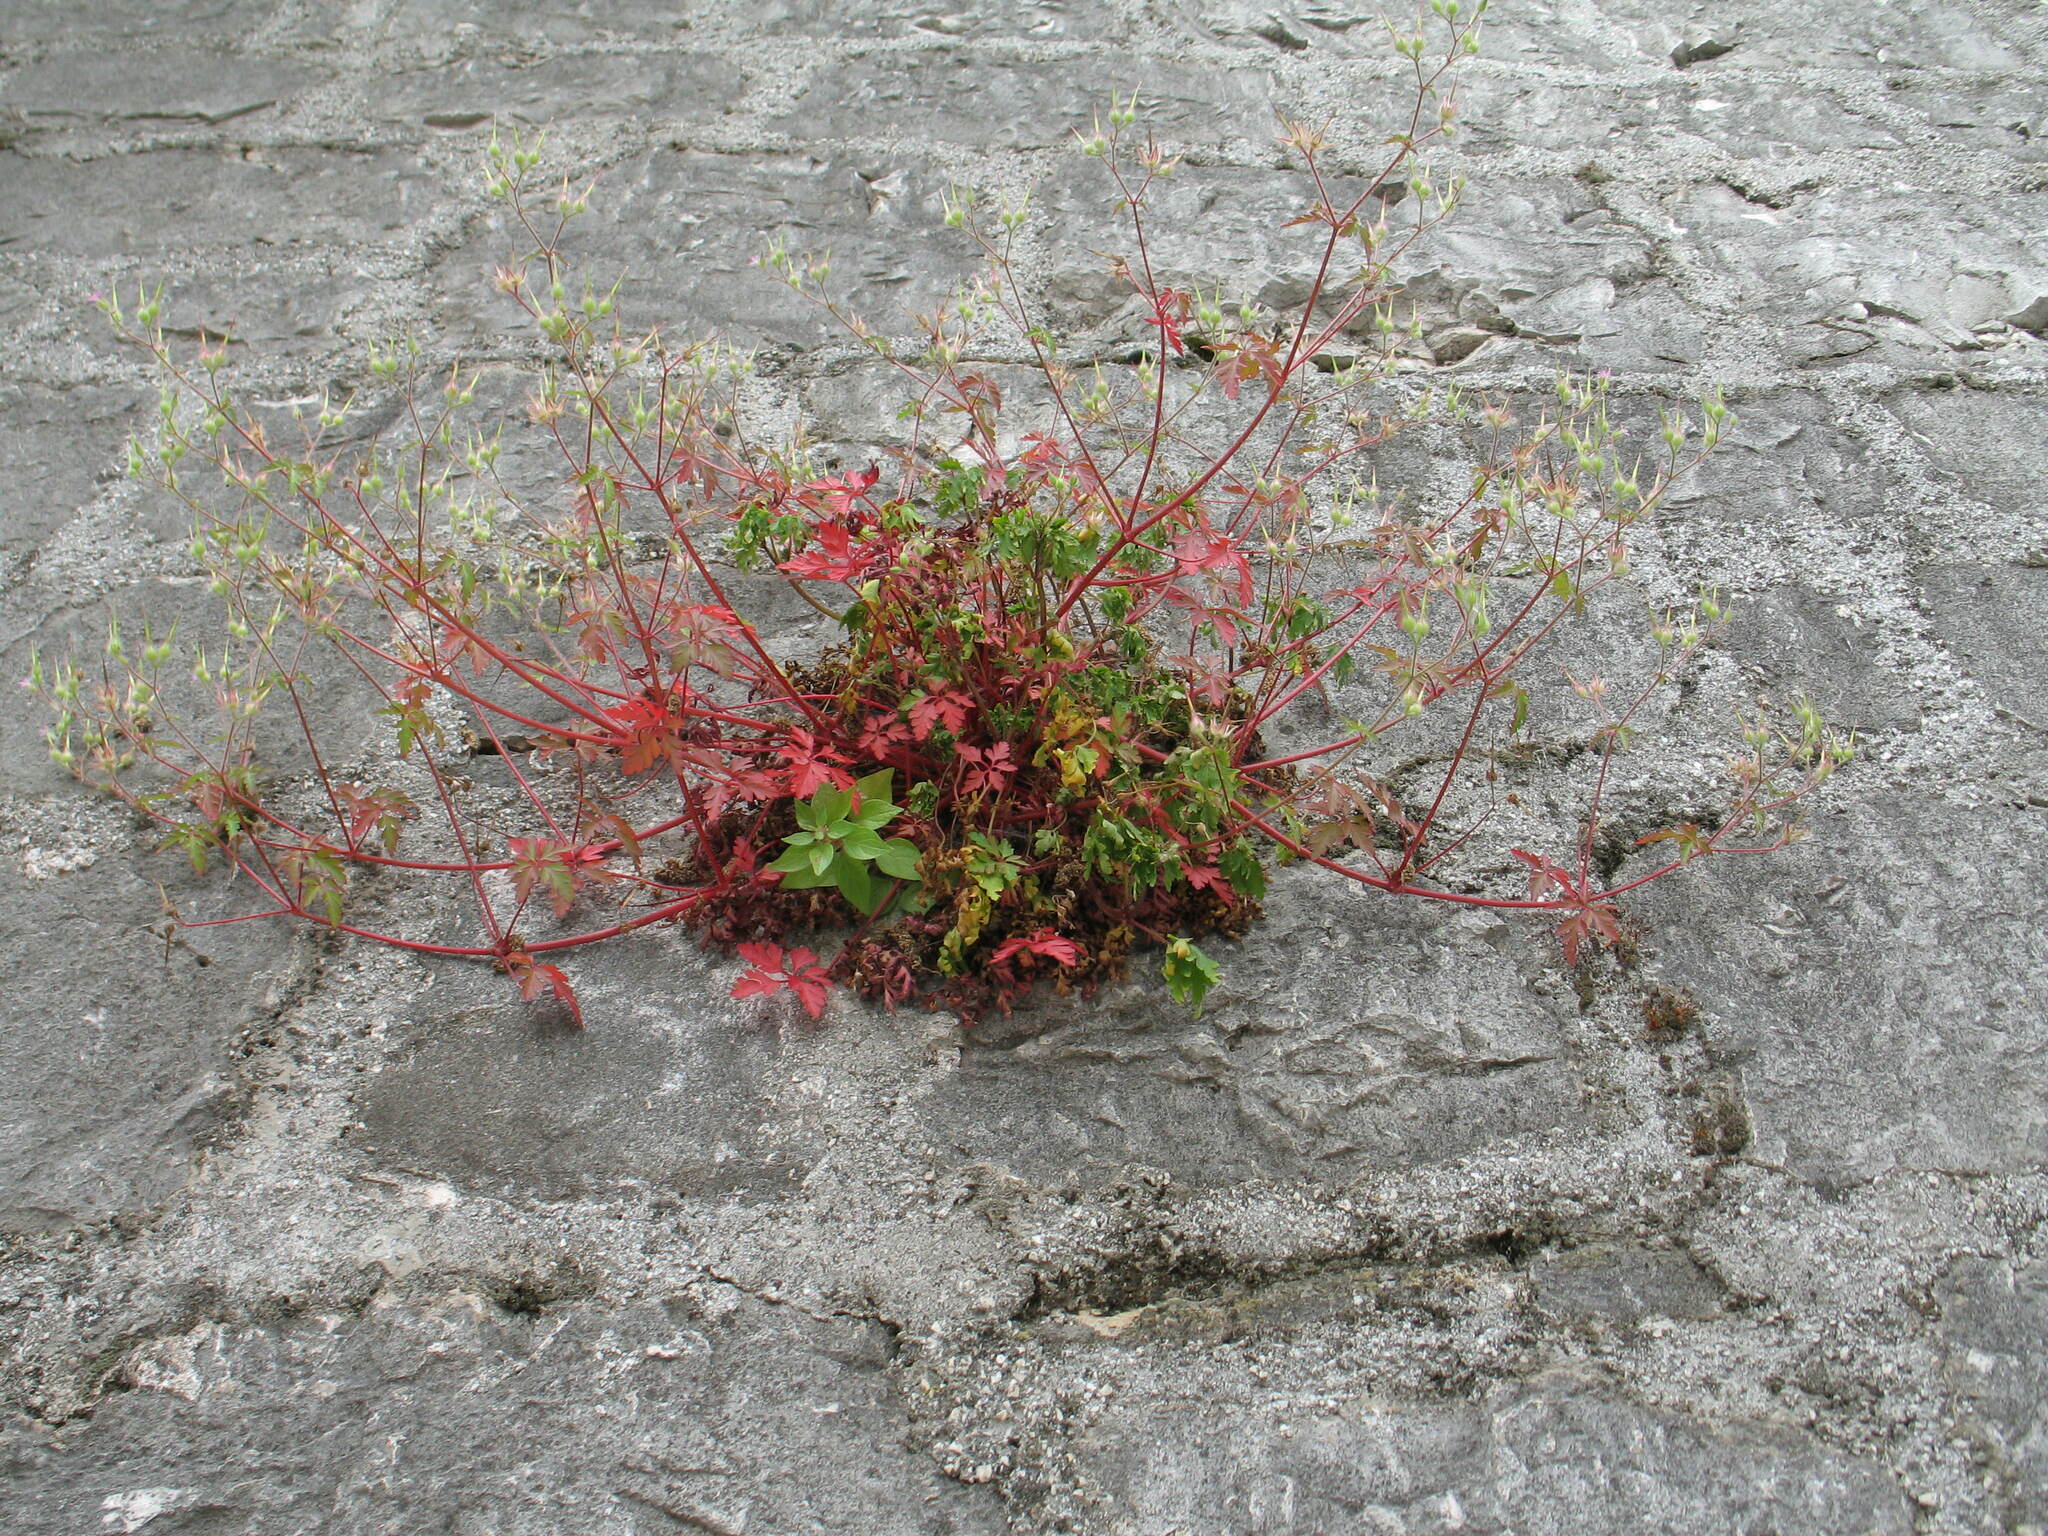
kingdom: Plantae
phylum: Tracheophyta
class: Magnoliopsida
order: Geraniales
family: Geraniaceae
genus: Geranium
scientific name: Geranium purpureum
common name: Little-robin
